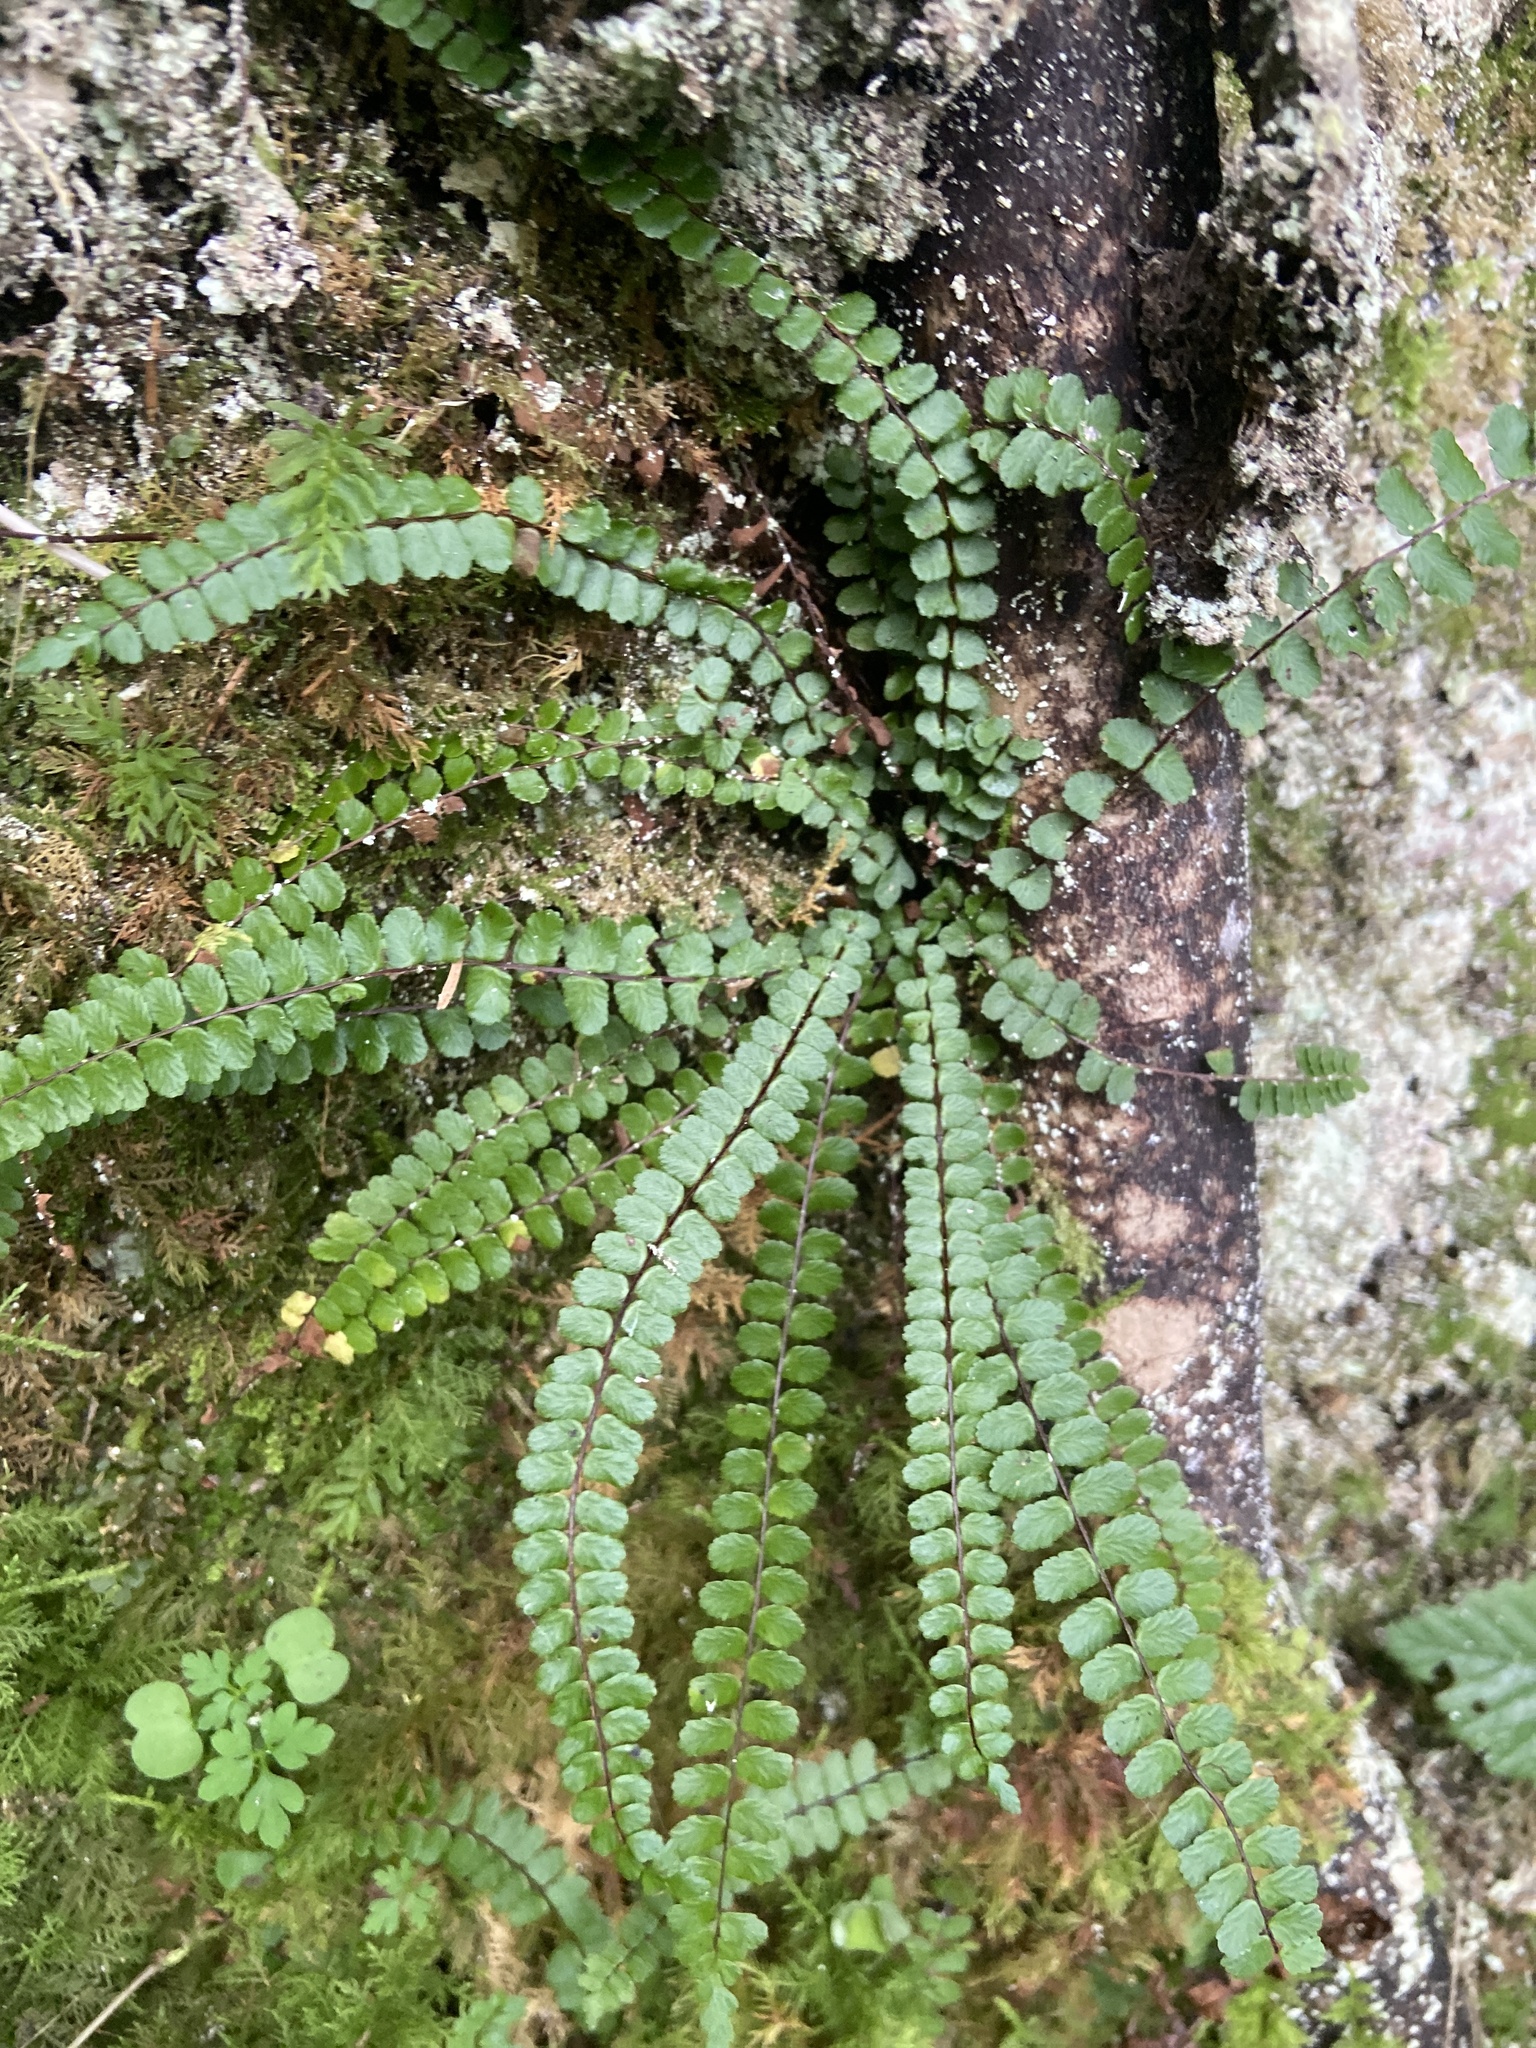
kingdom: Plantae
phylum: Tracheophyta
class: Polypodiopsida
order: Polypodiales
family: Aspleniaceae
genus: Asplenium
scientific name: Asplenium trichomanes
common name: Maidenhair spleenwort
